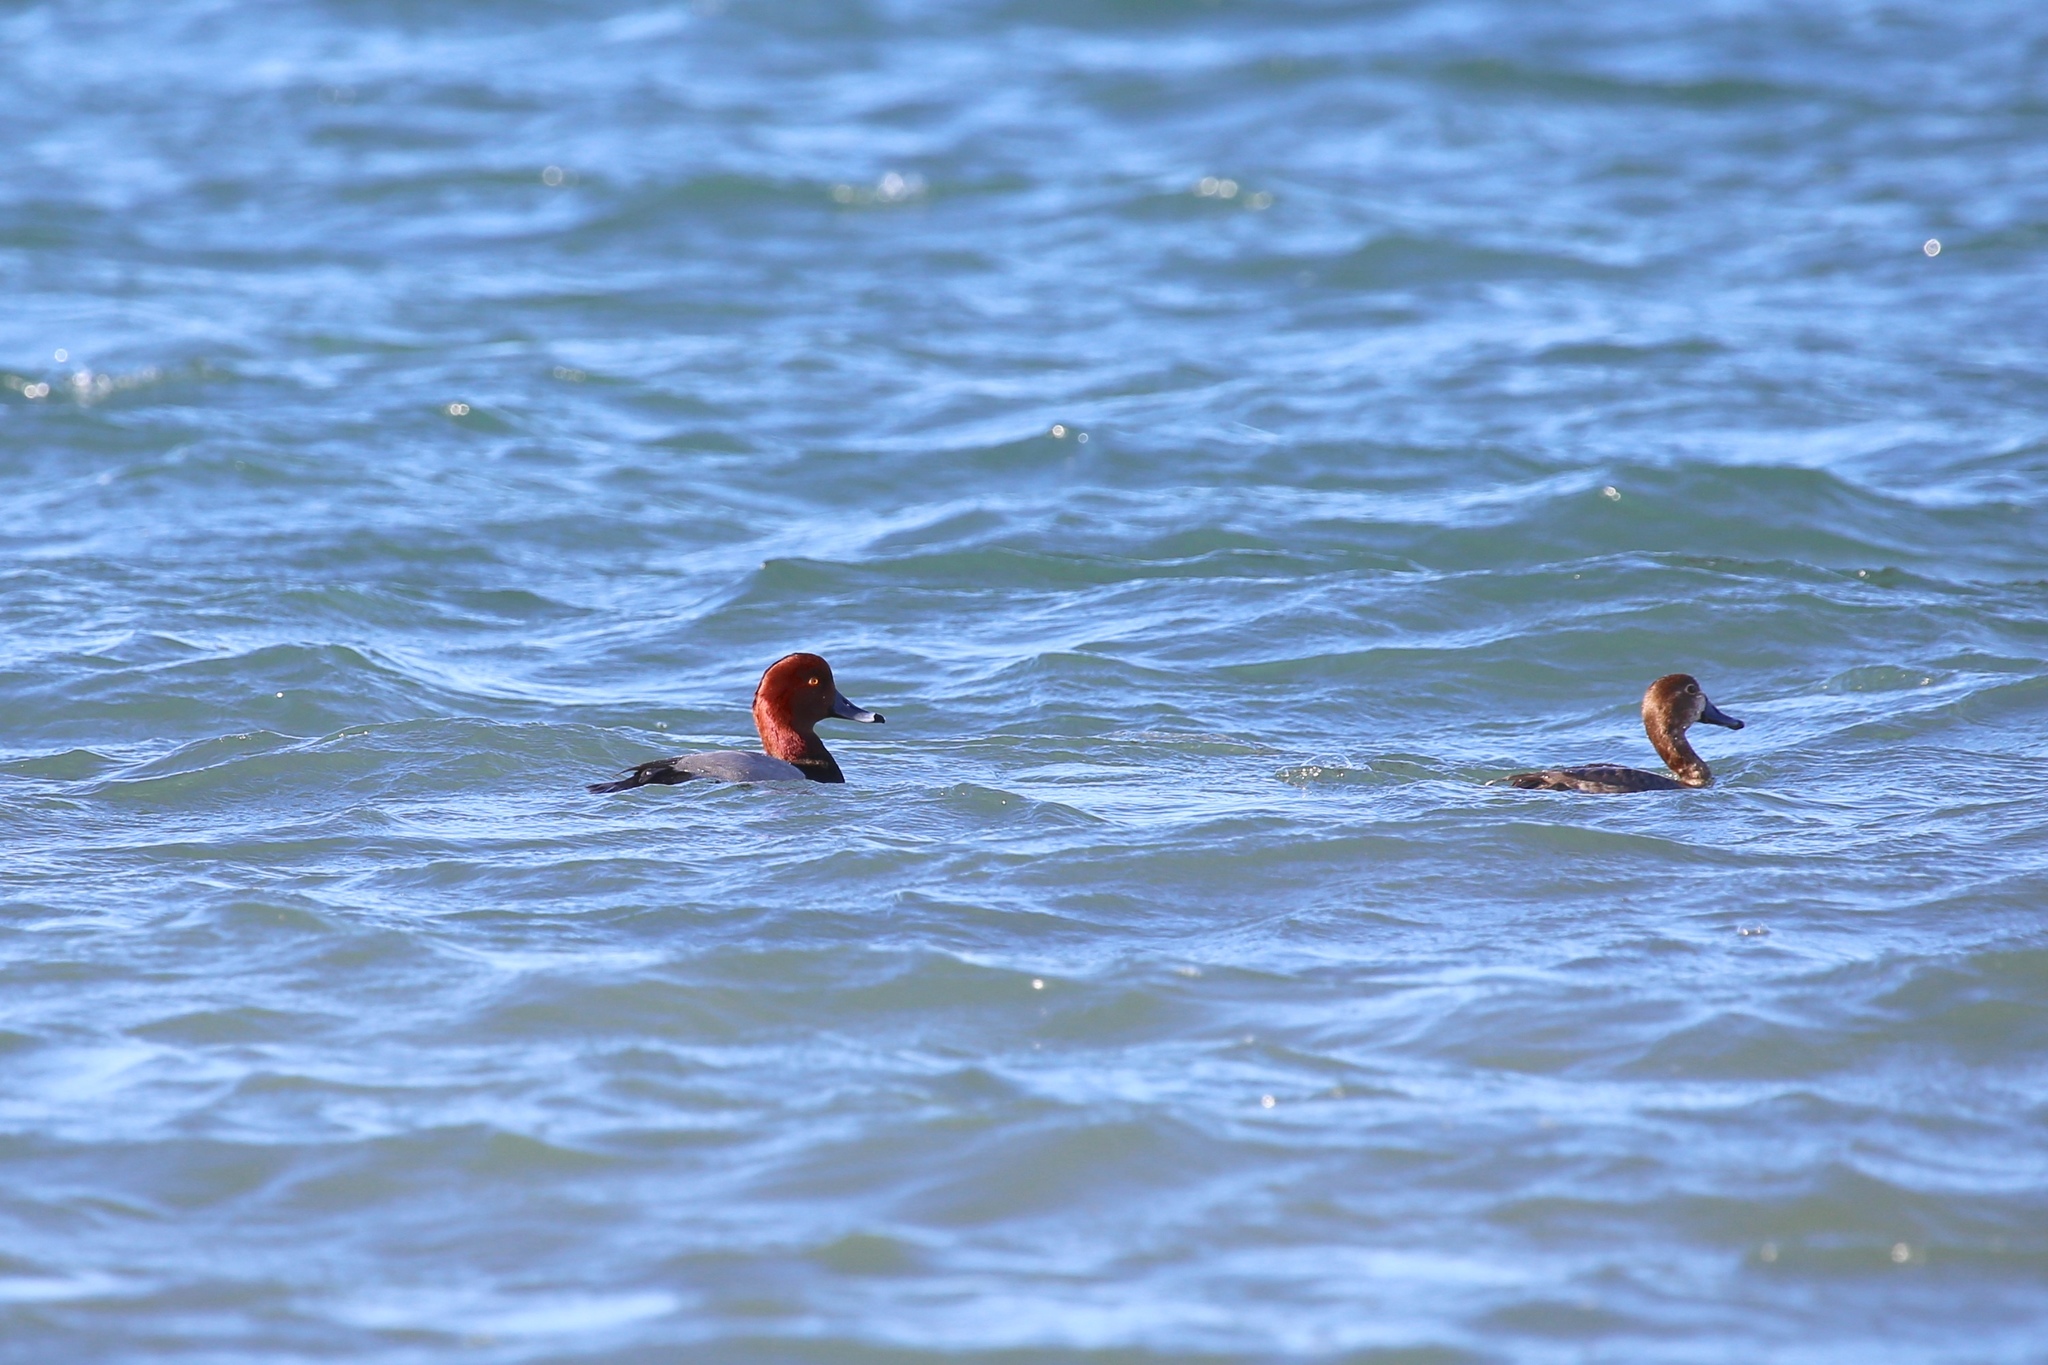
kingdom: Animalia
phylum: Chordata
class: Aves
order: Anseriformes
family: Anatidae
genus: Aythya
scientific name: Aythya americana
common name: Redhead
